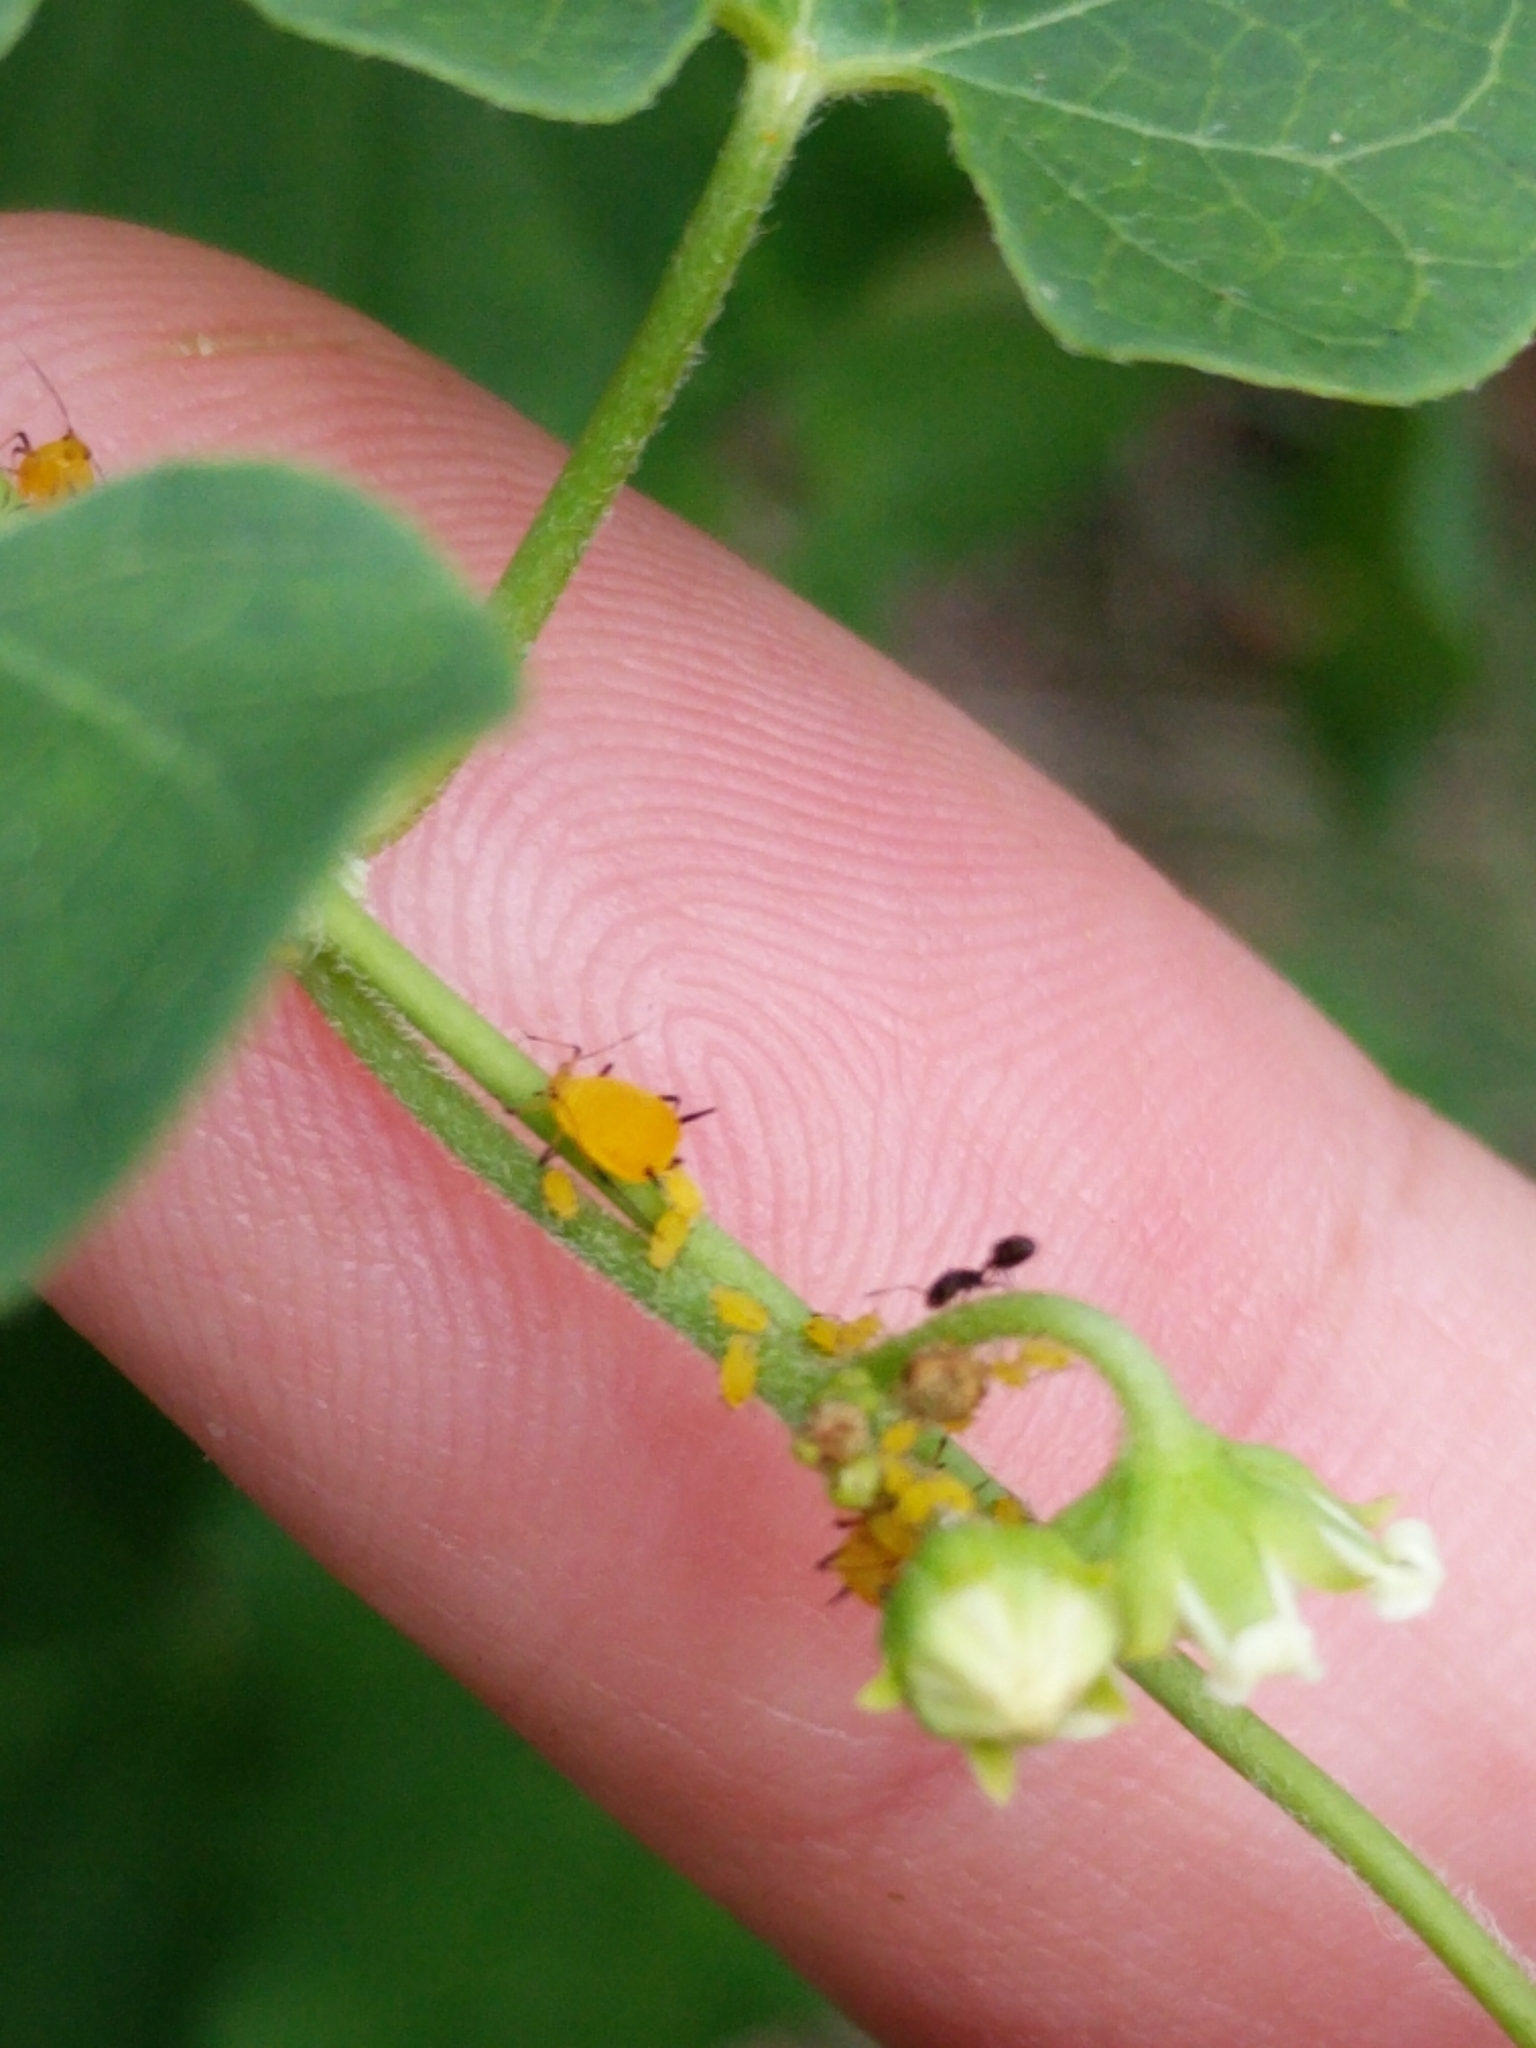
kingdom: Animalia
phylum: Arthropoda
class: Insecta
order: Hemiptera
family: Aphididae
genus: Aphis
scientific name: Aphis nerii
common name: Oleander aphid
